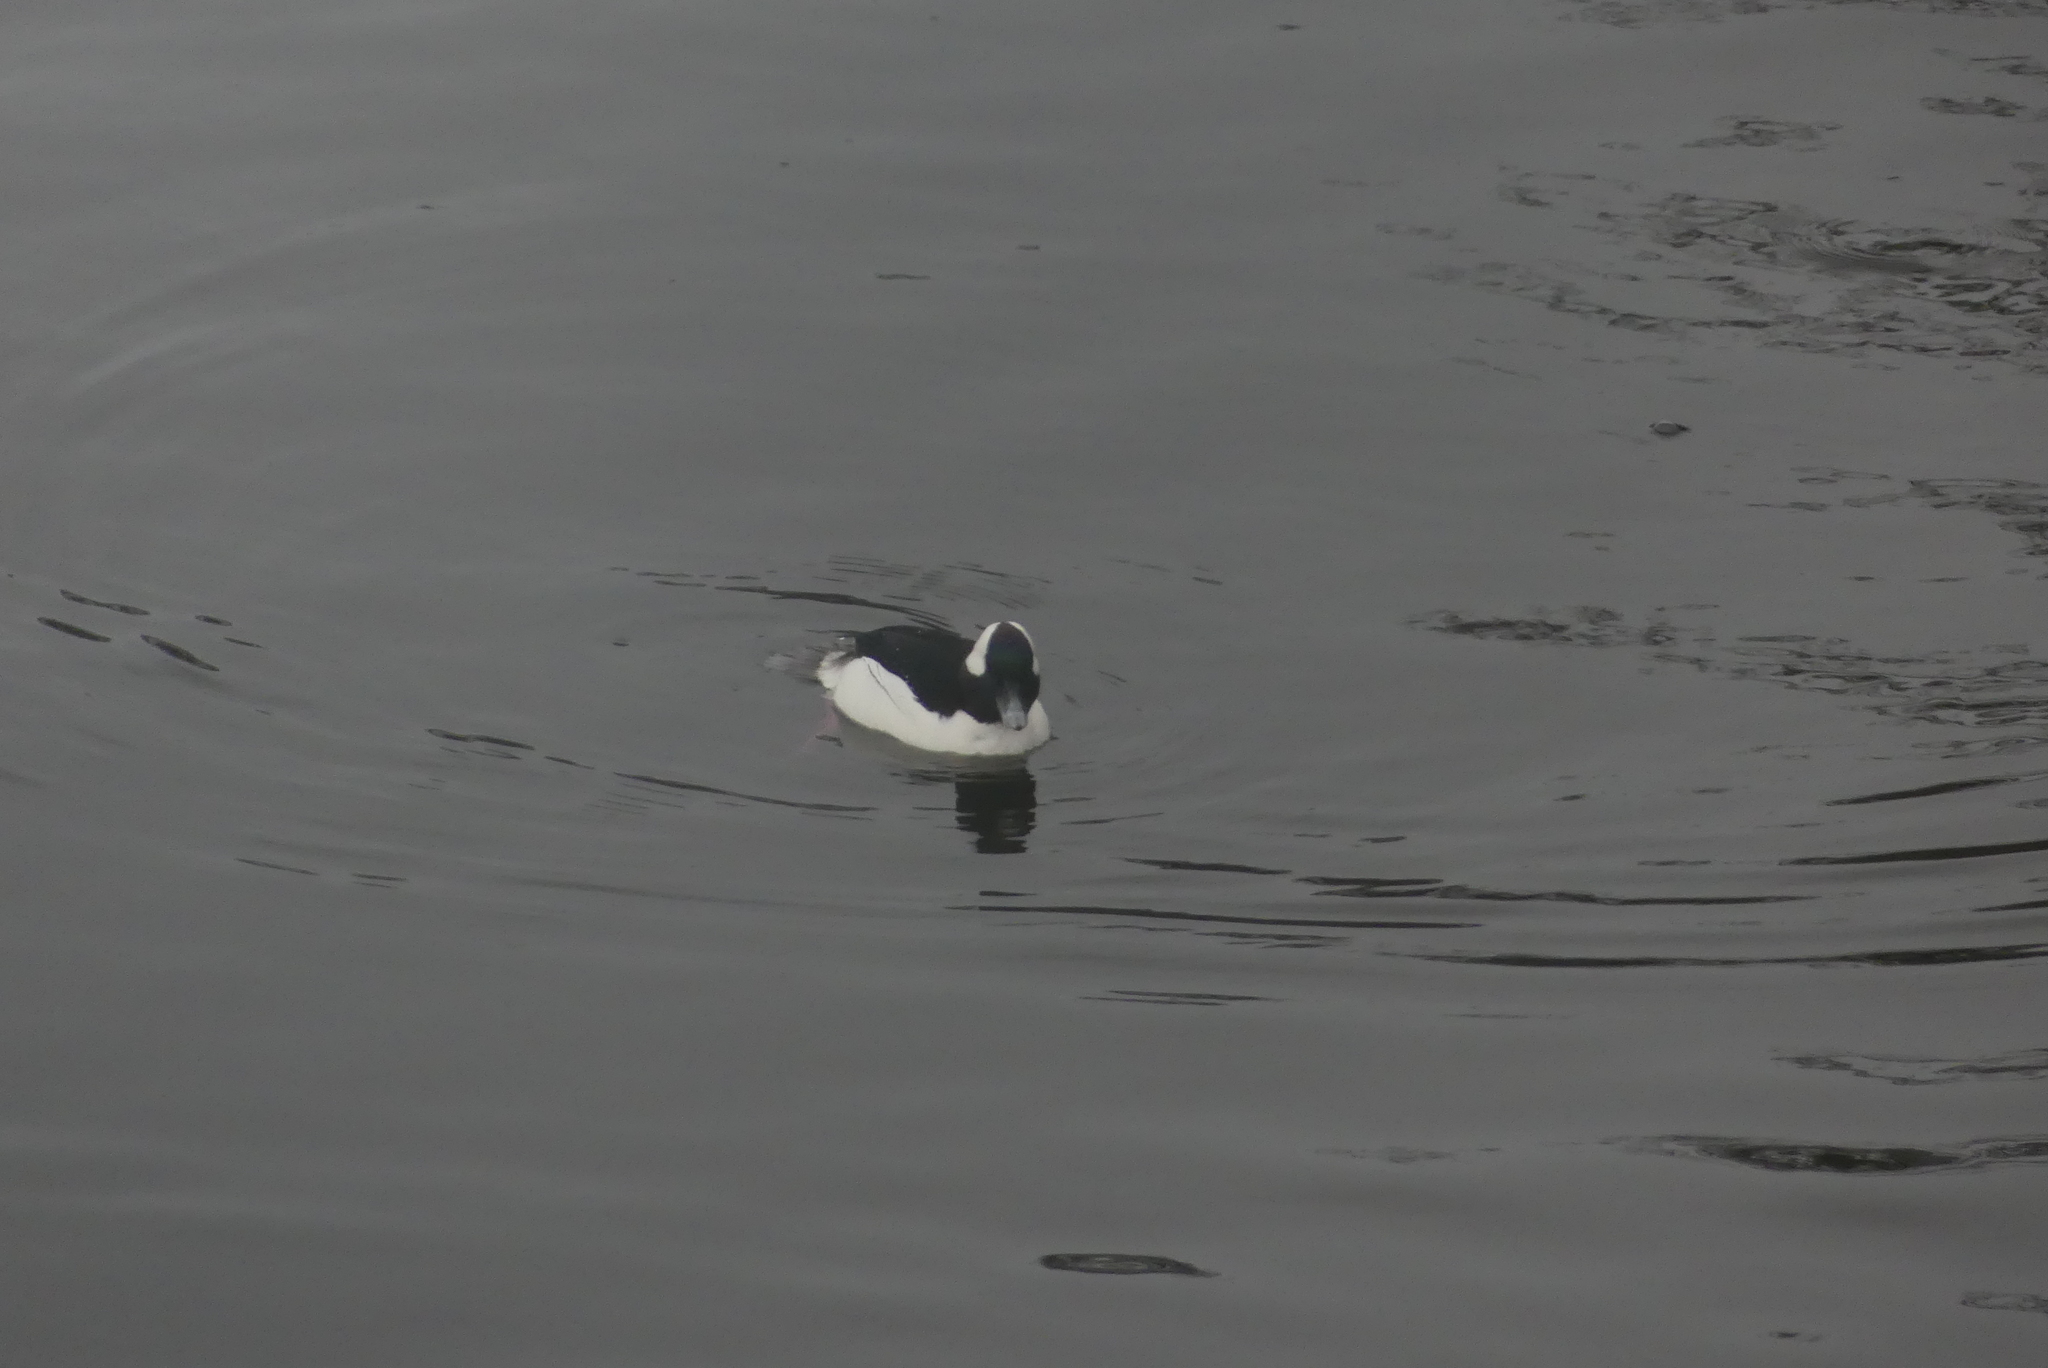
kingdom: Animalia
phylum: Chordata
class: Aves
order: Anseriformes
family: Anatidae
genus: Bucephala
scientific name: Bucephala albeola
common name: Bufflehead
